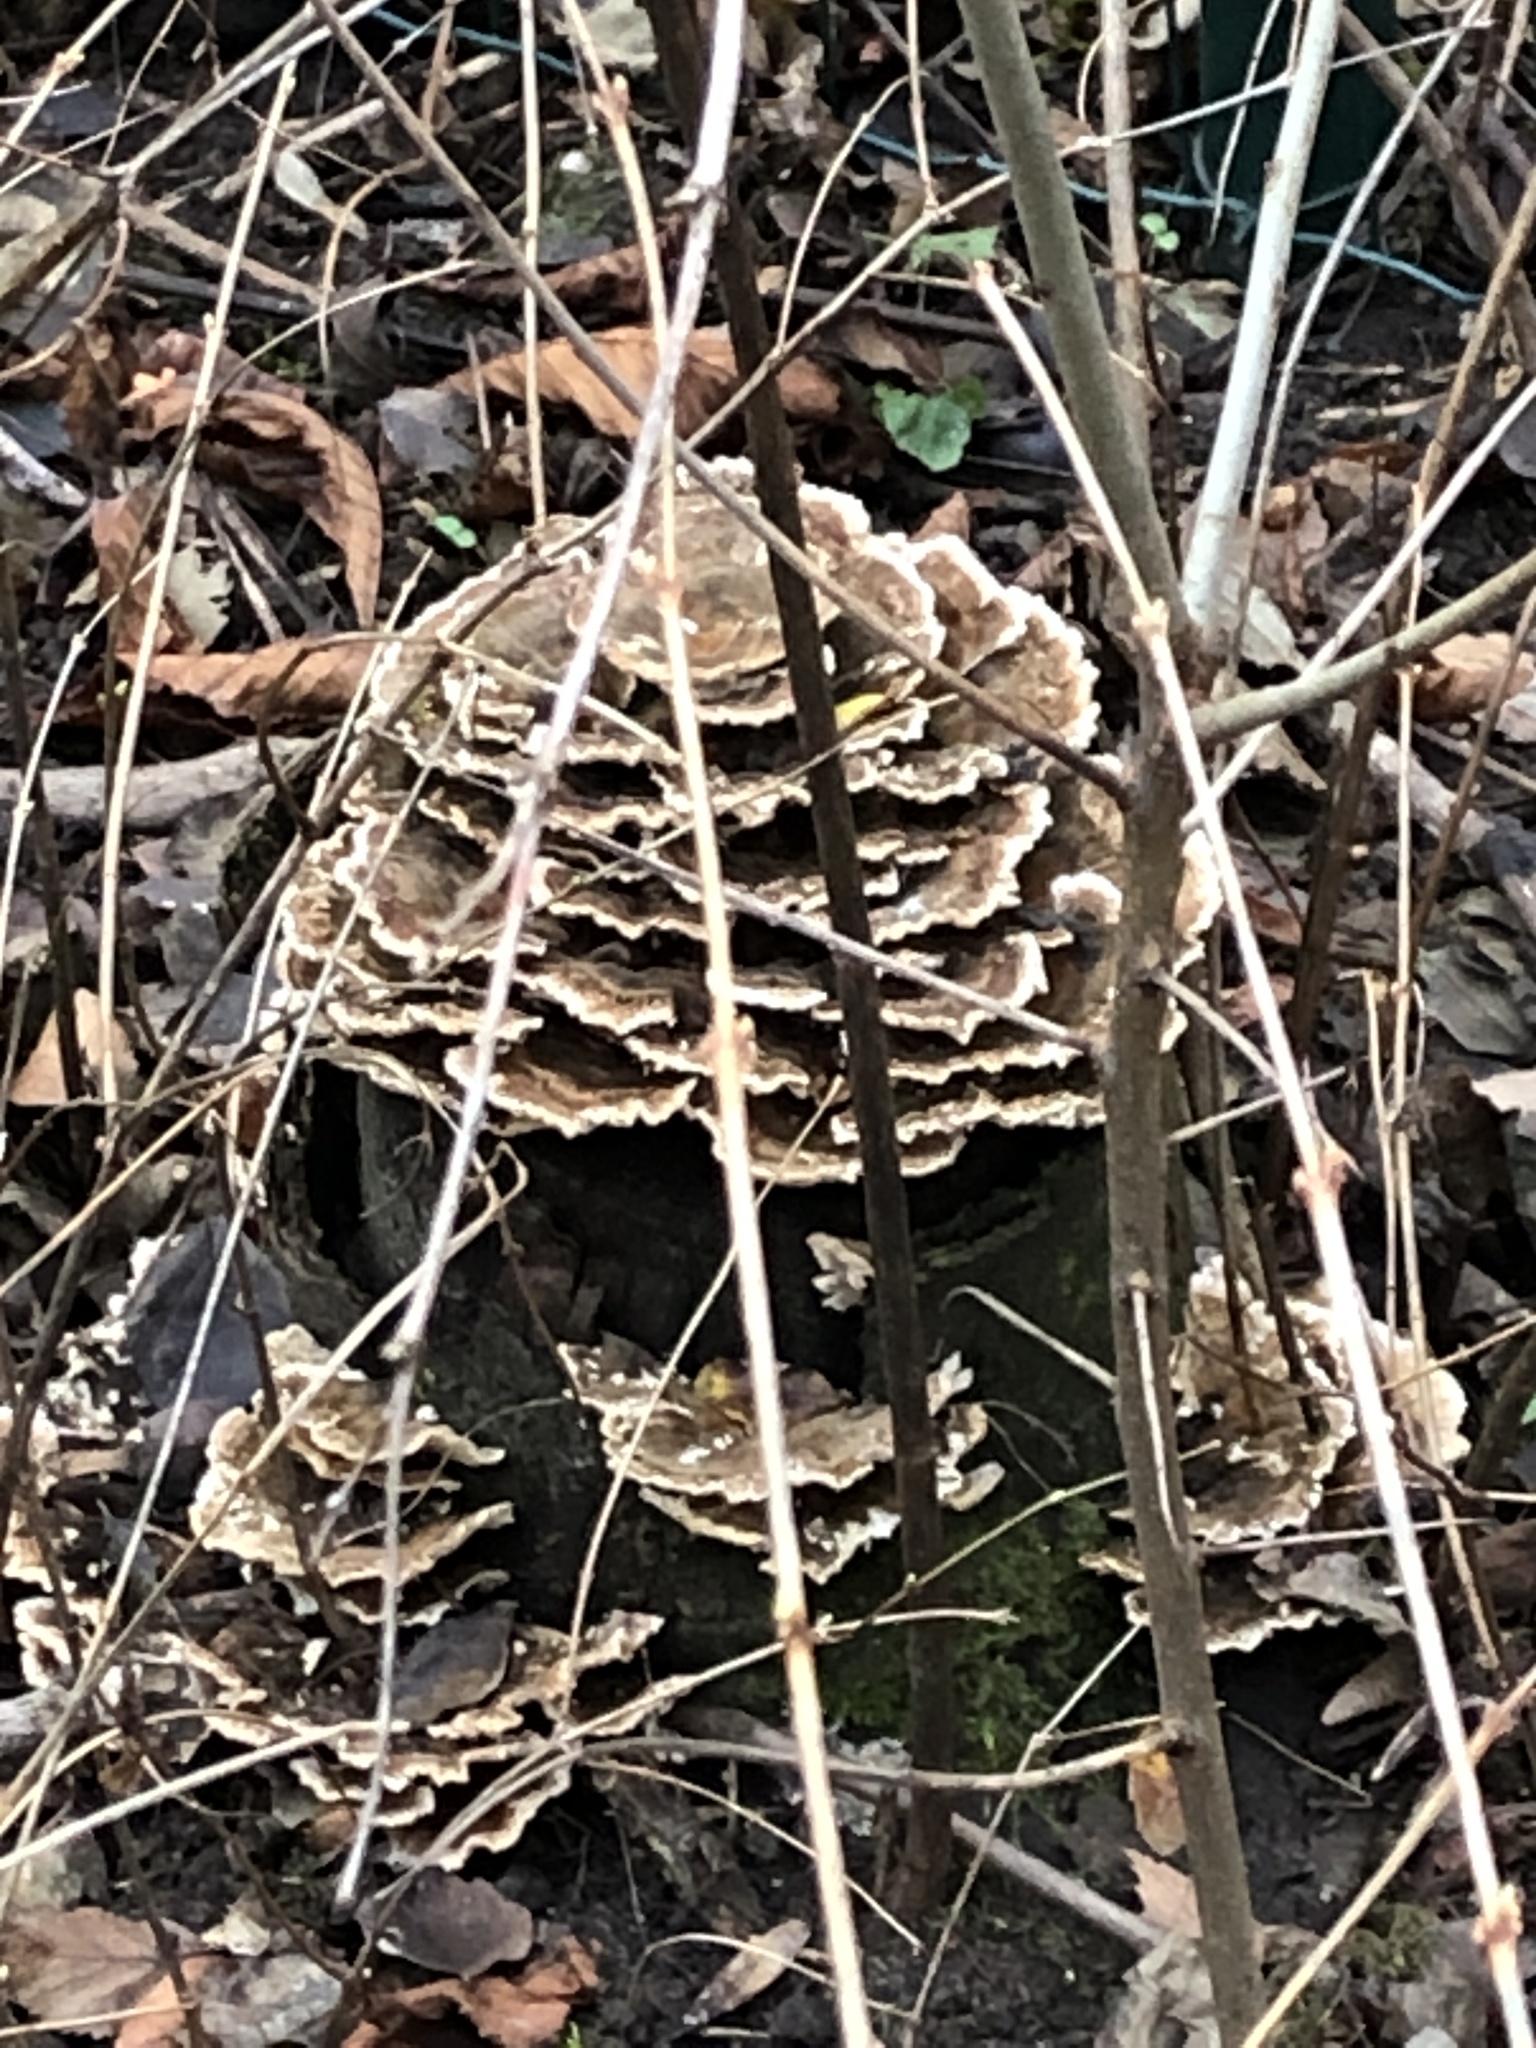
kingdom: Fungi
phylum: Basidiomycota
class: Agaricomycetes
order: Polyporales
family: Polyporaceae
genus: Trametes
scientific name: Trametes versicolor
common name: Turkeytail
